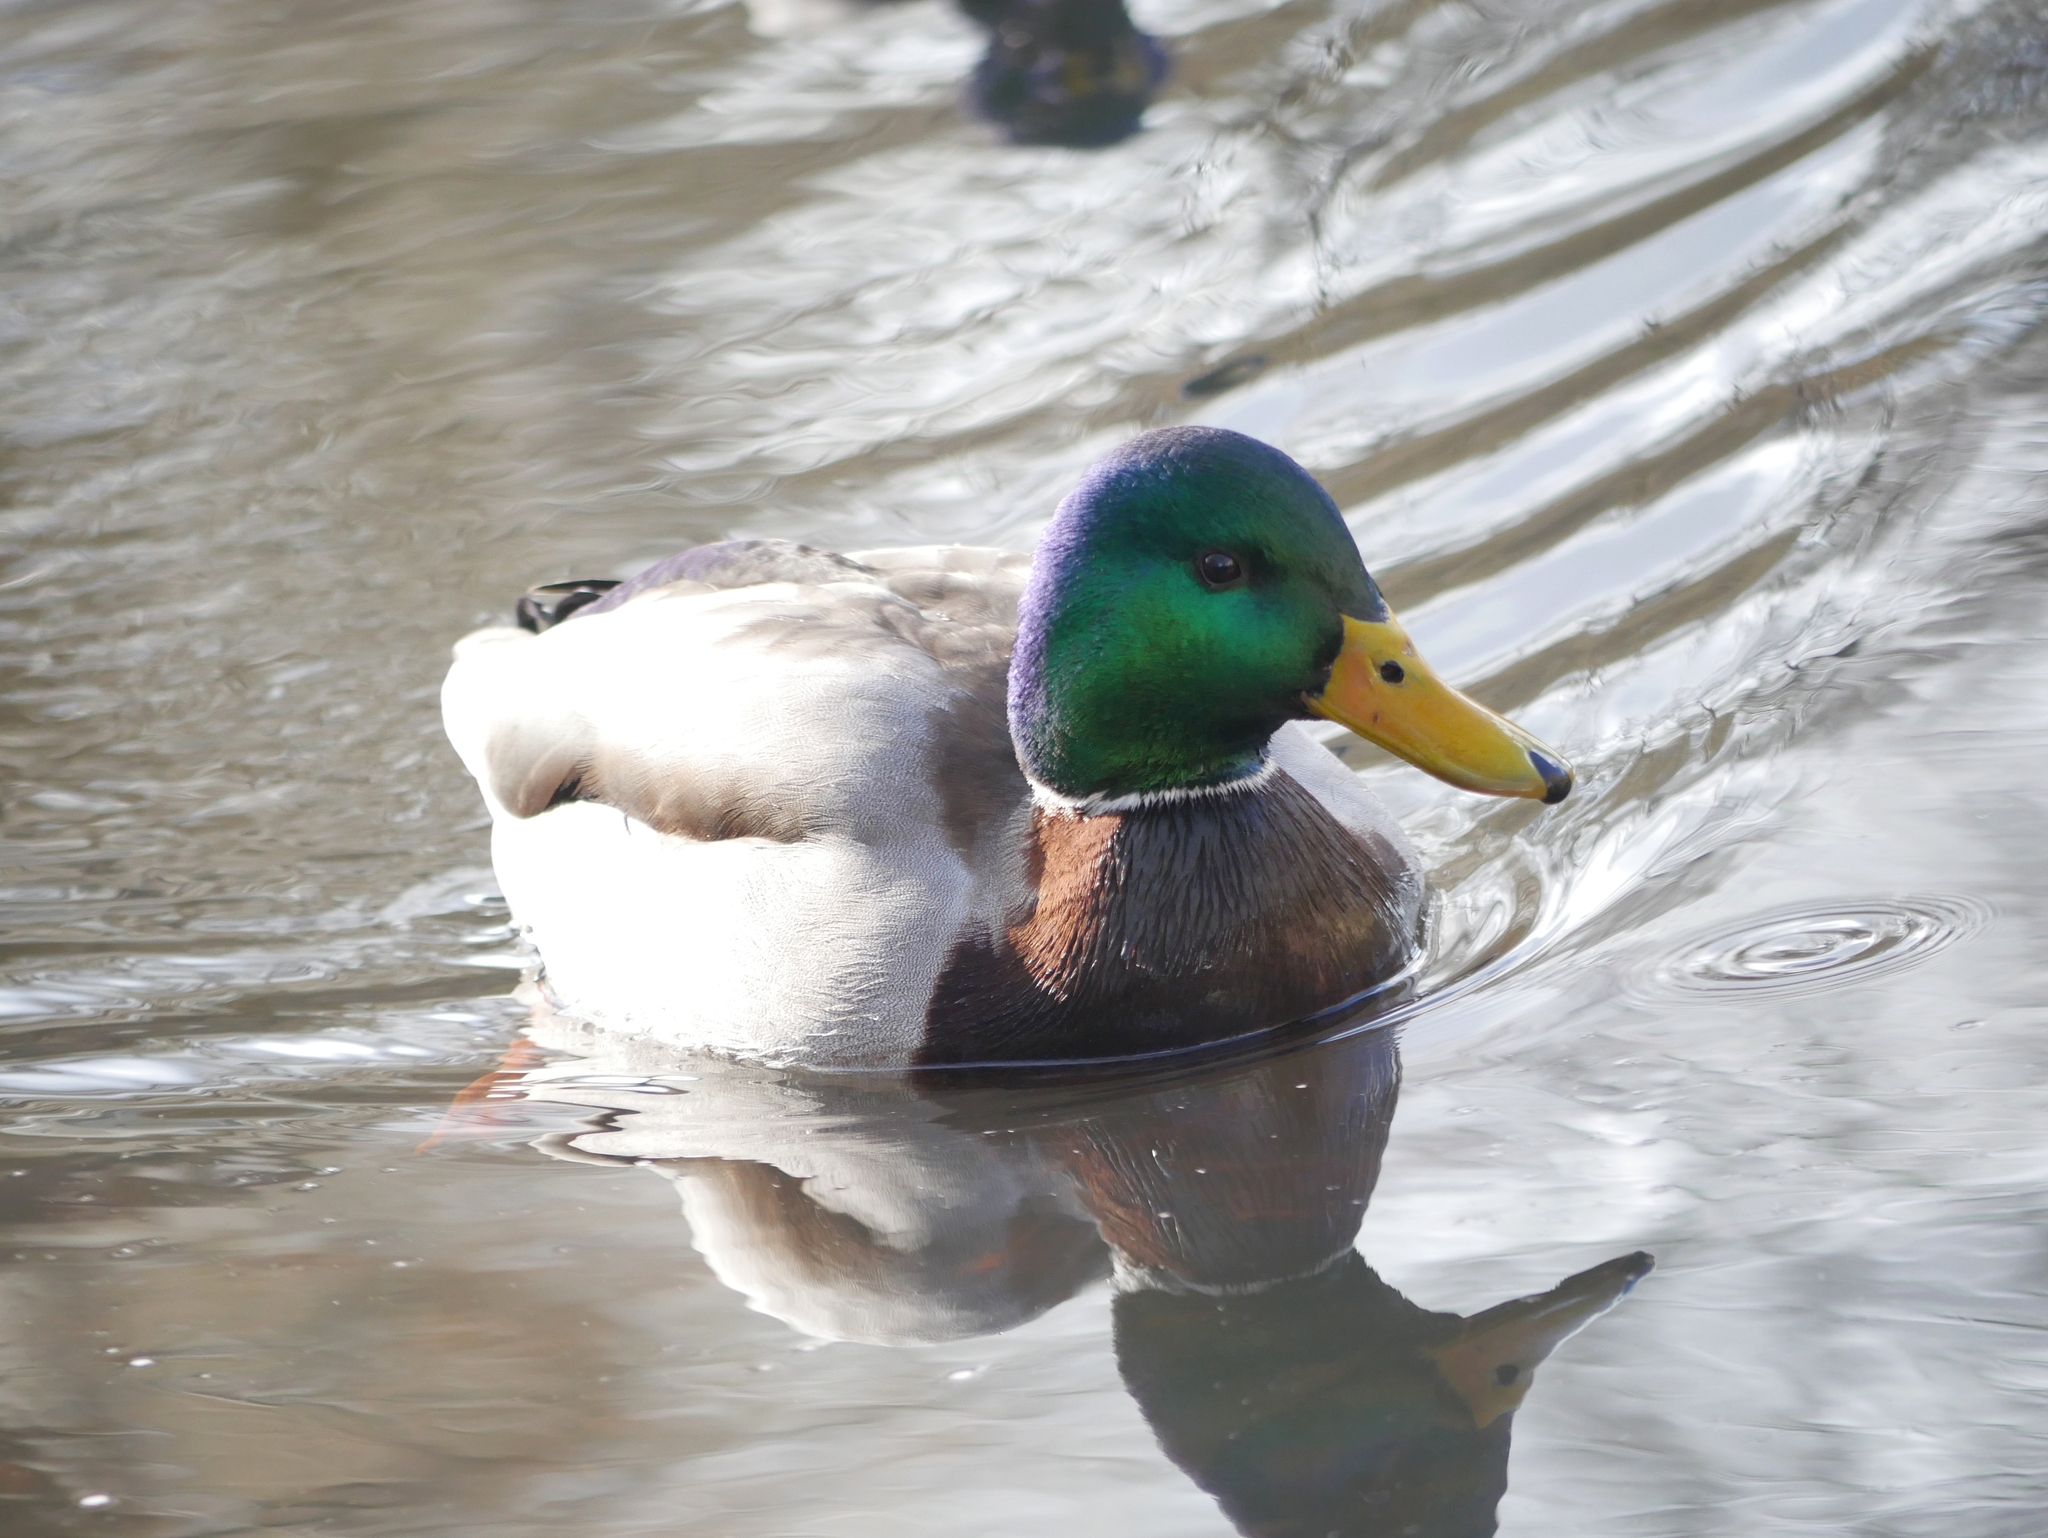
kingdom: Animalia
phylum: Chordata
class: Aves
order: Anseriformes
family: Anatidae
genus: Anas
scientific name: Anas platyrhynchos
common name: Mallard
